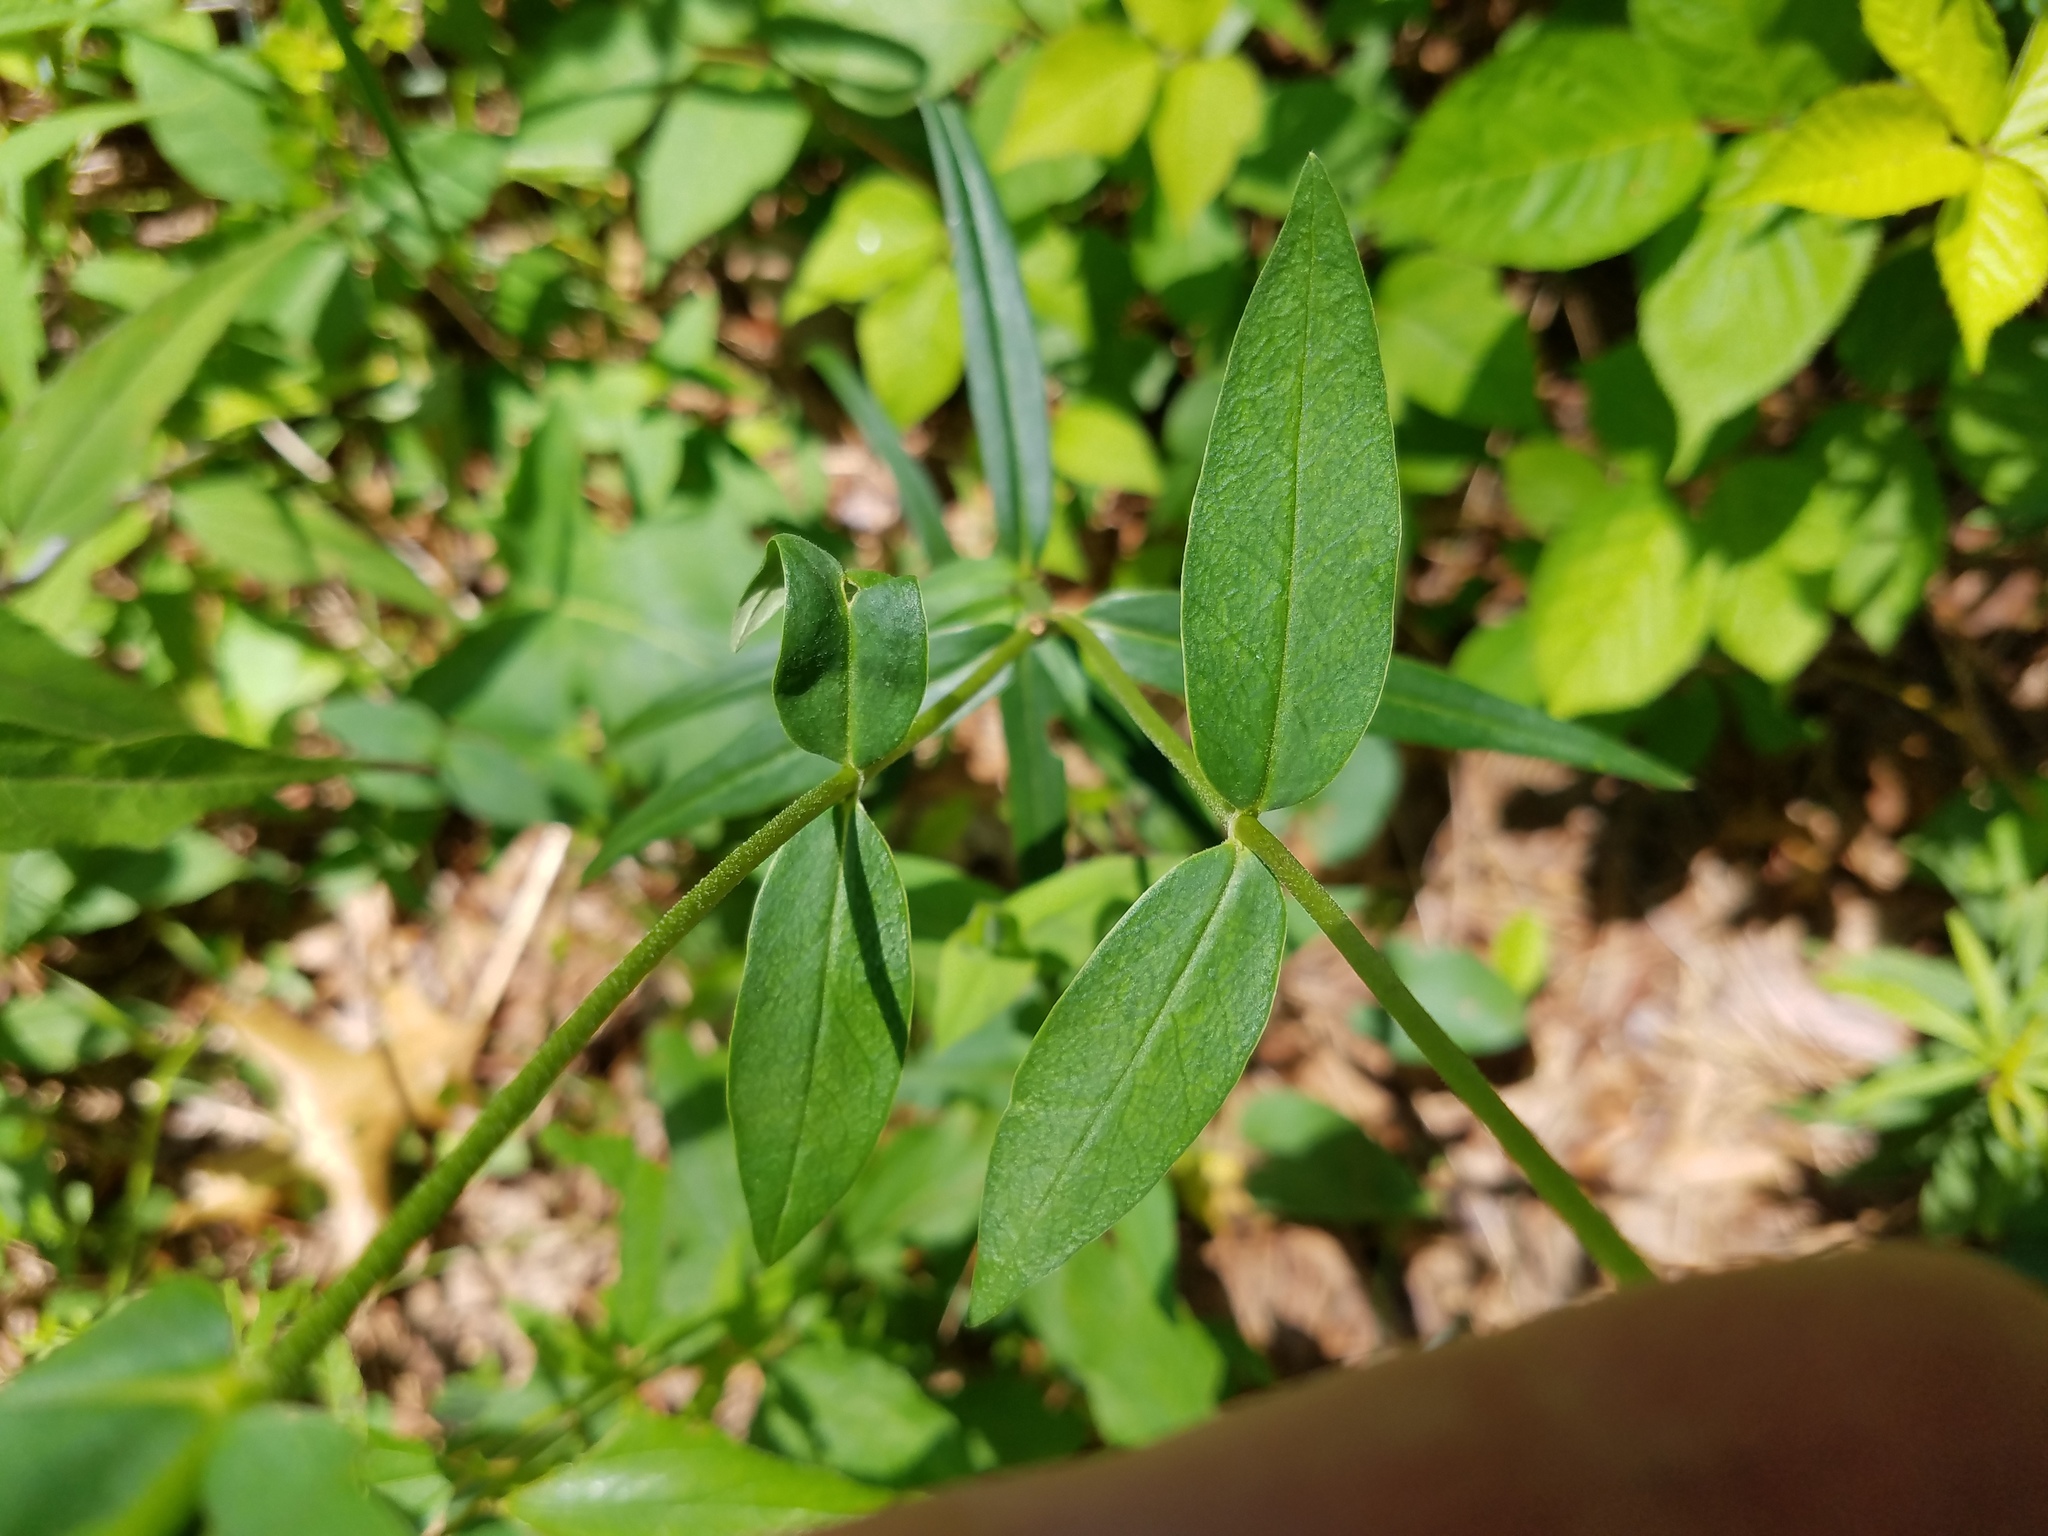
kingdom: Plantae
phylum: Tracheophyta
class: Magnoliopsida
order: Ericales
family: Polemoniaceae
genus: Phlox
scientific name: Phlox carolina
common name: Thick-leaf phlox
